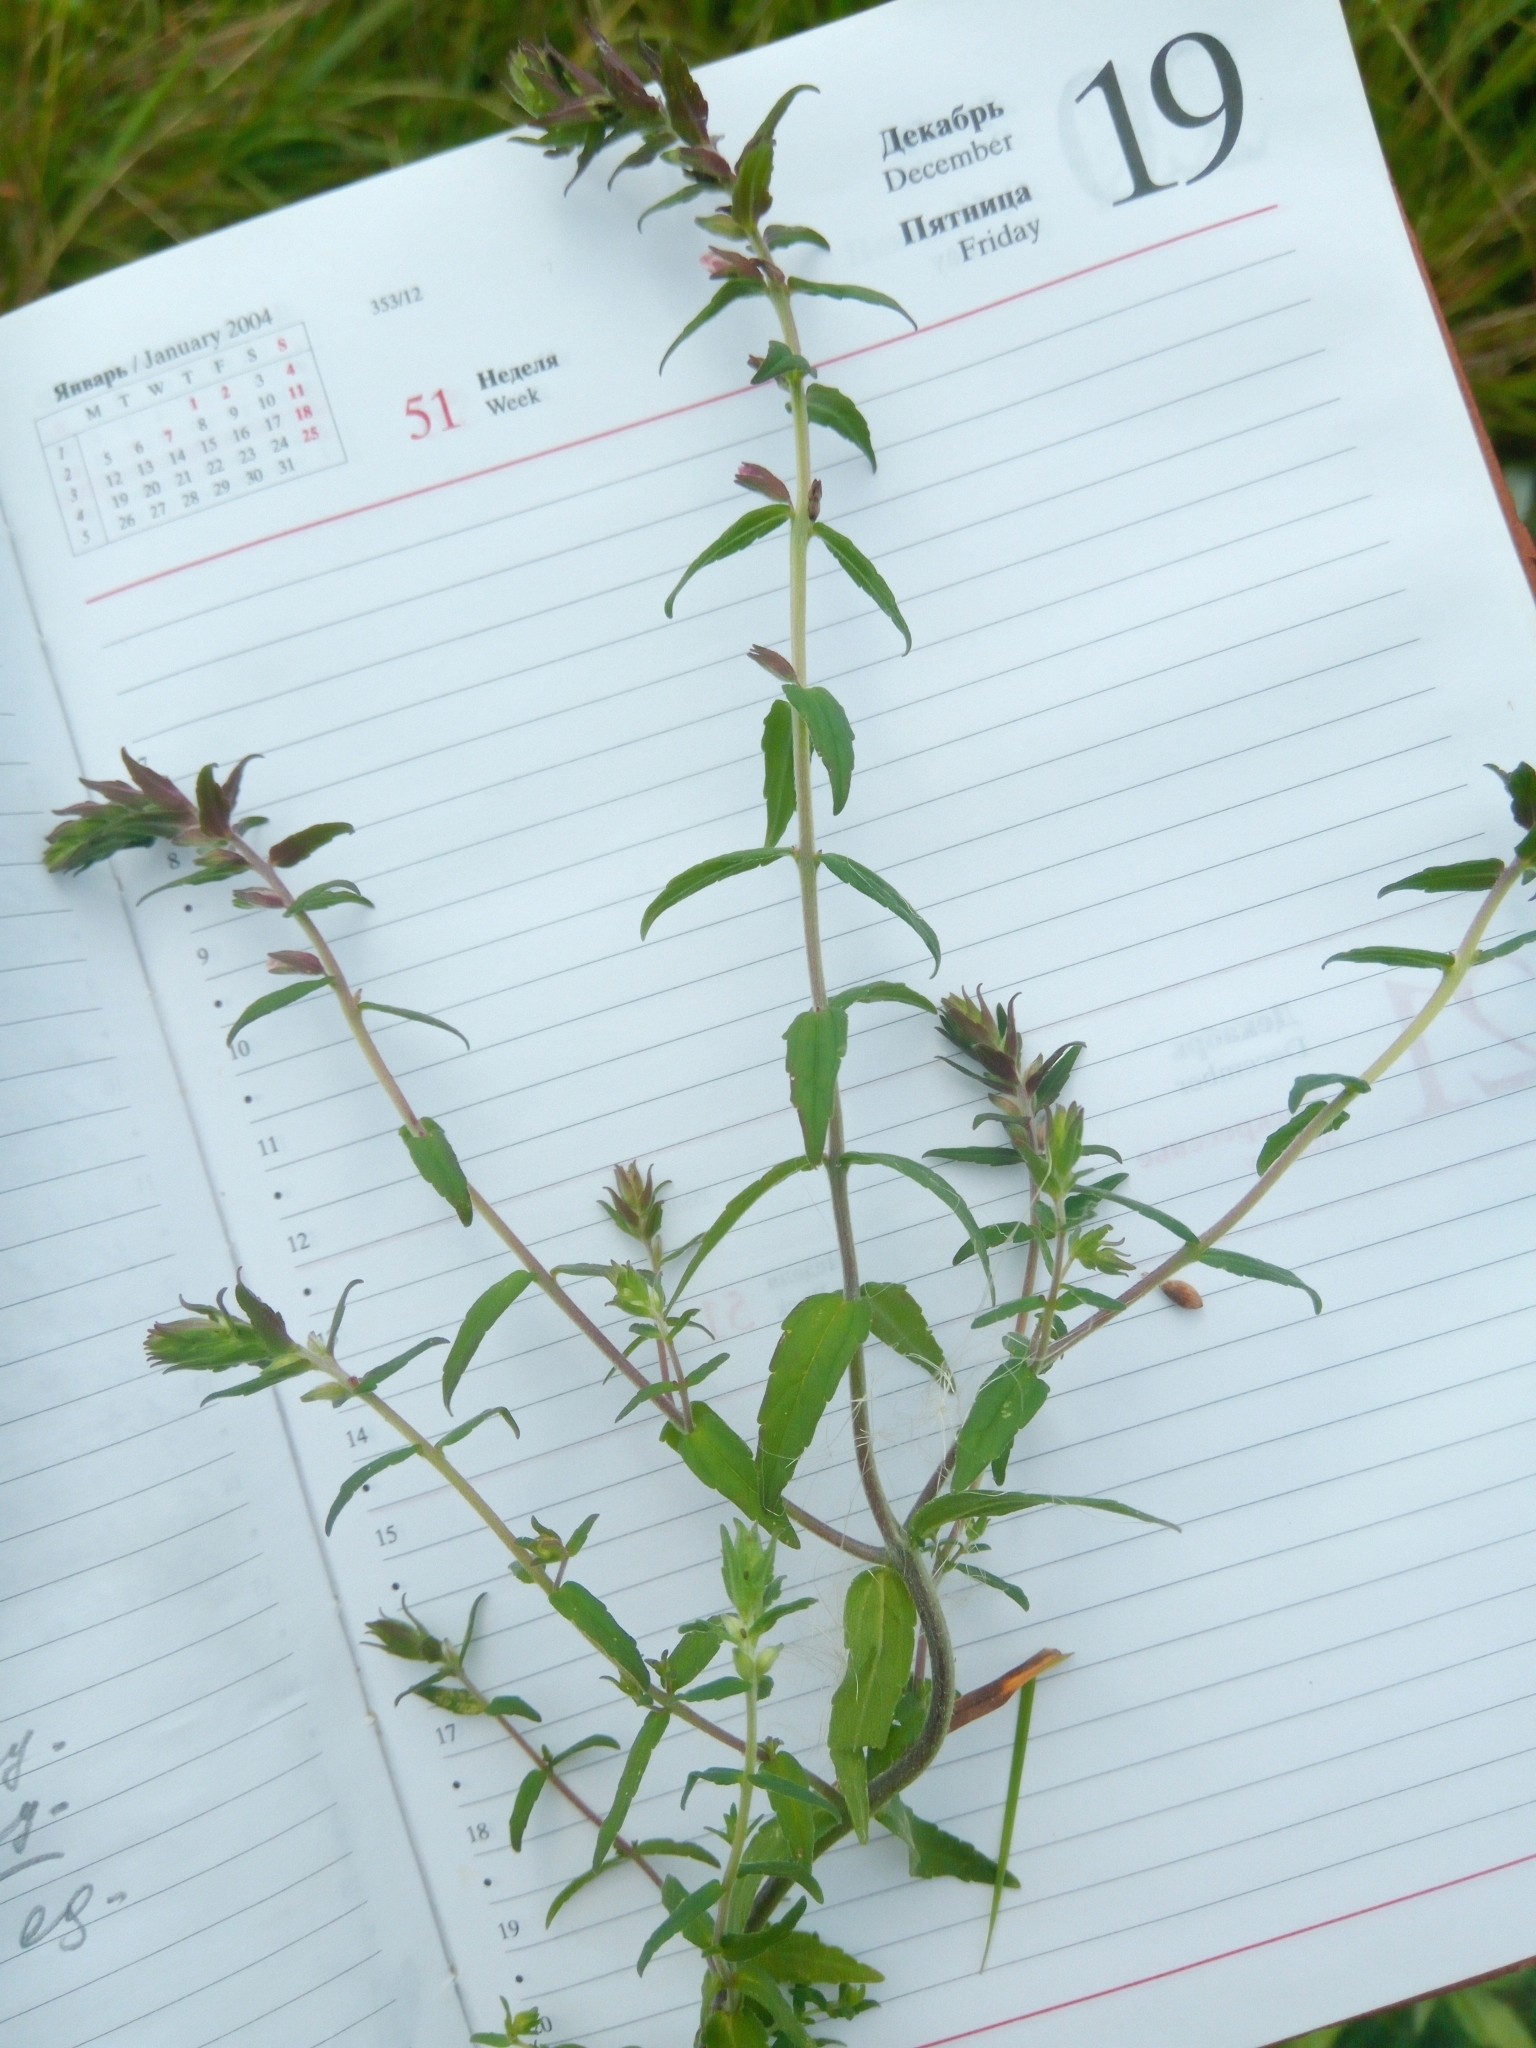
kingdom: Plantae
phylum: Tracheophyta
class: Magnoliopsida
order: Lamiales
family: Orobanchaceae
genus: Odontites
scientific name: Odontites vulgaris
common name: Broomrape
